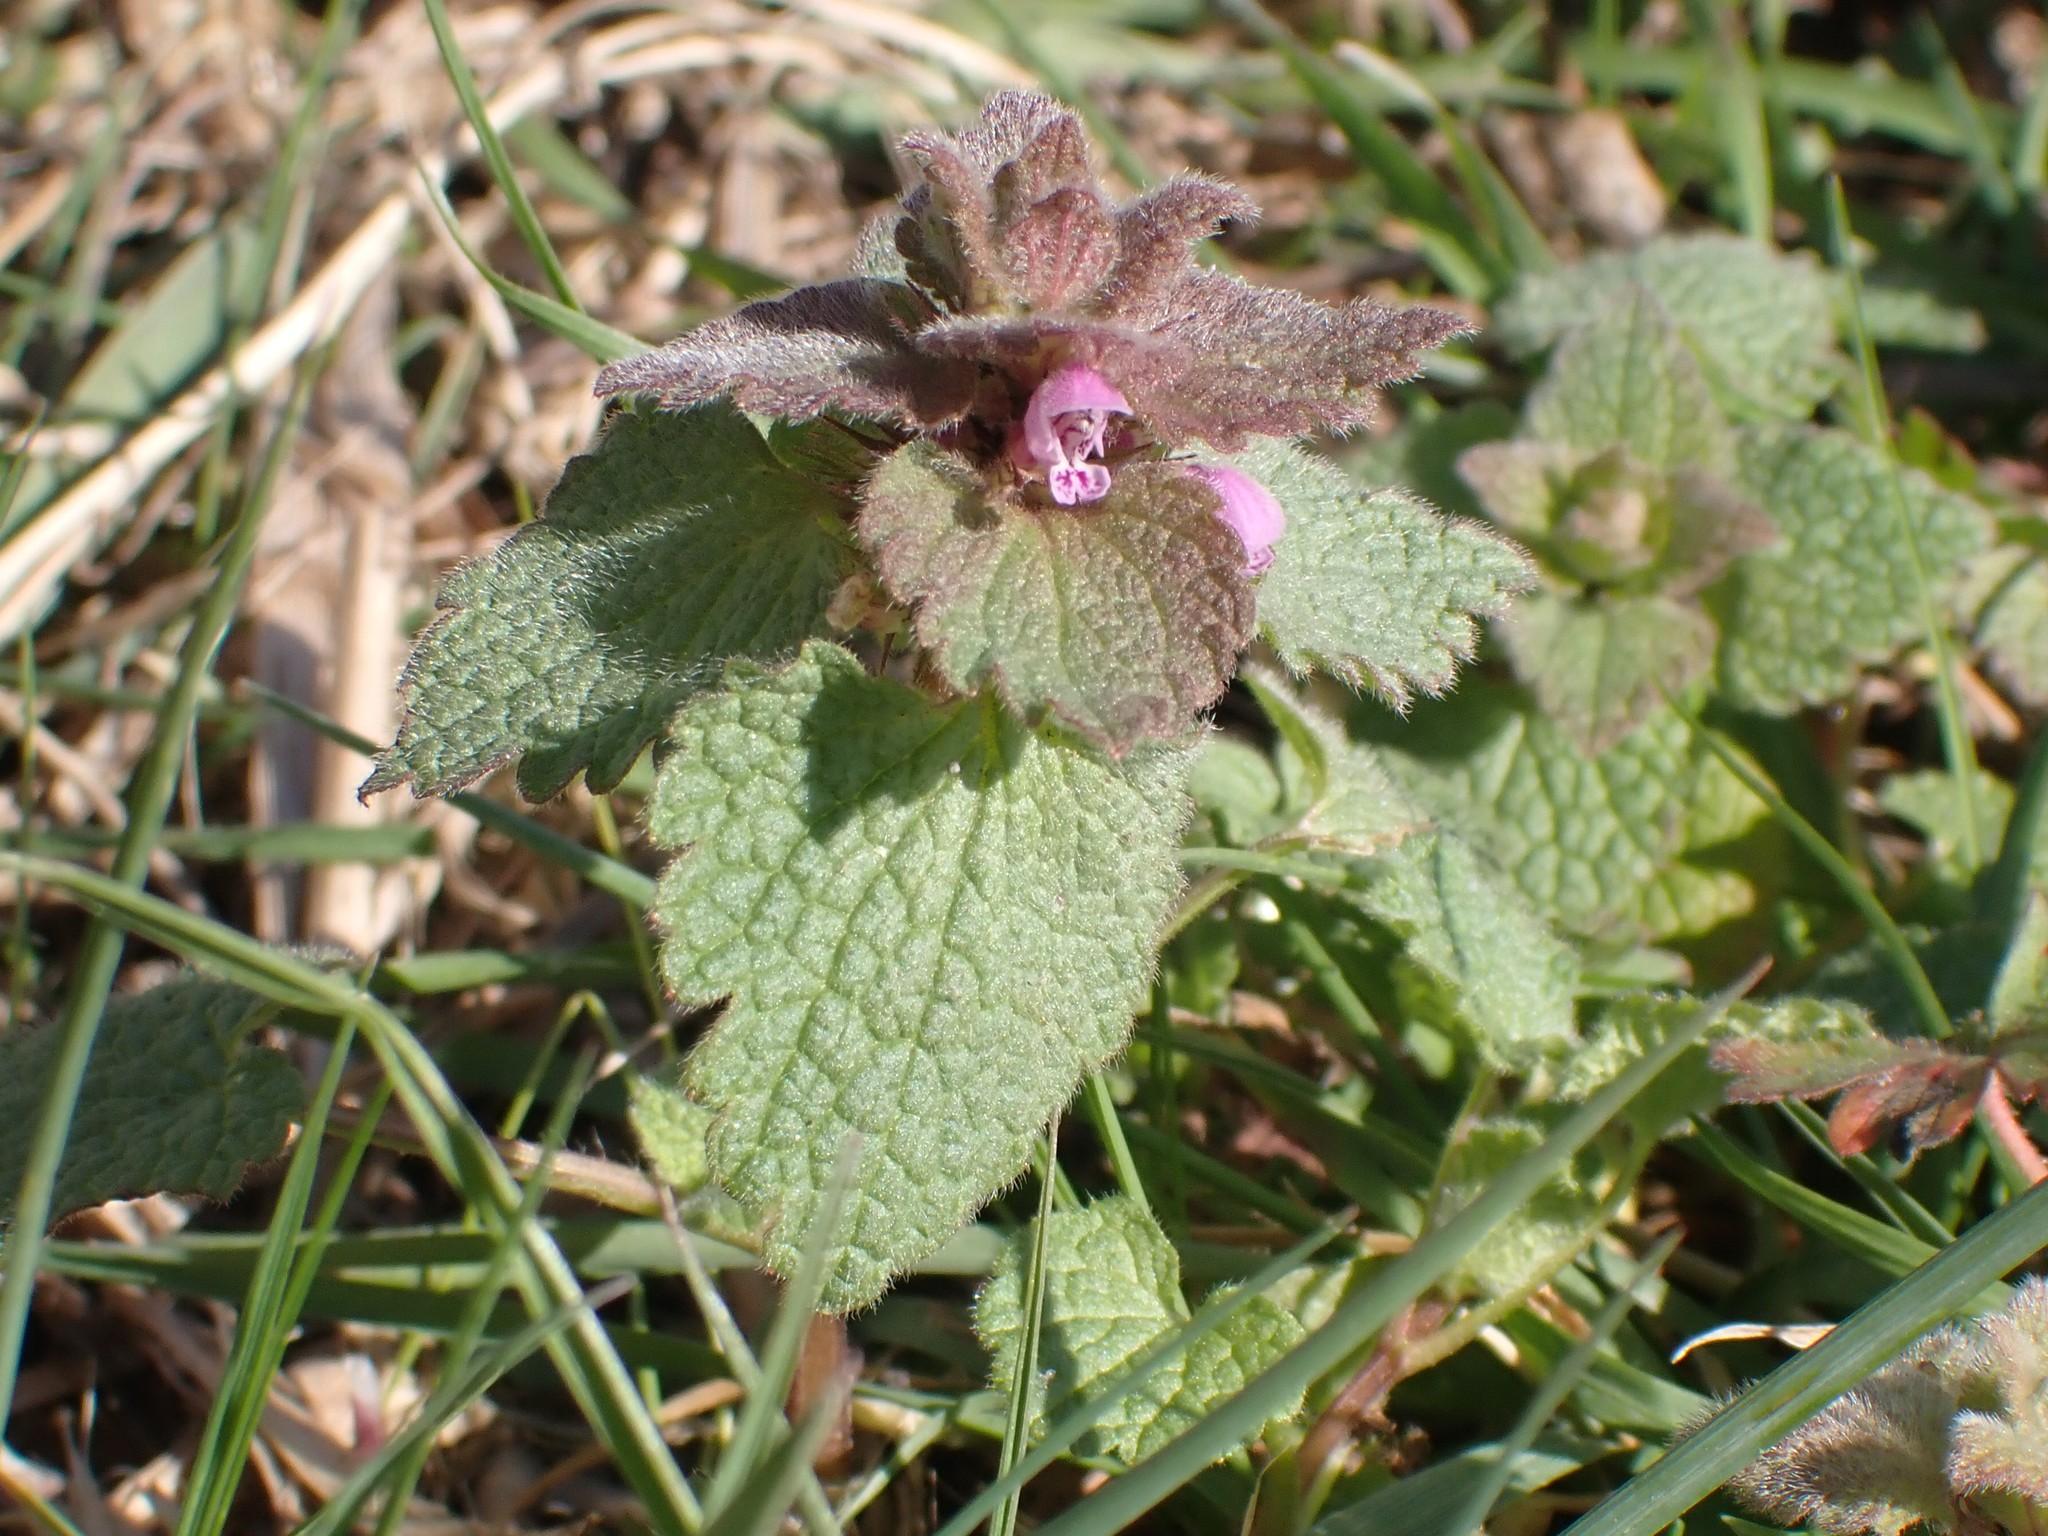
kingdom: Plantae
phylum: Tracheophyta
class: Magnoliopsida
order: Lamiales
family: Lamiaceae
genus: Lamium
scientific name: Lamium purpureum
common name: Red dead-nettle
